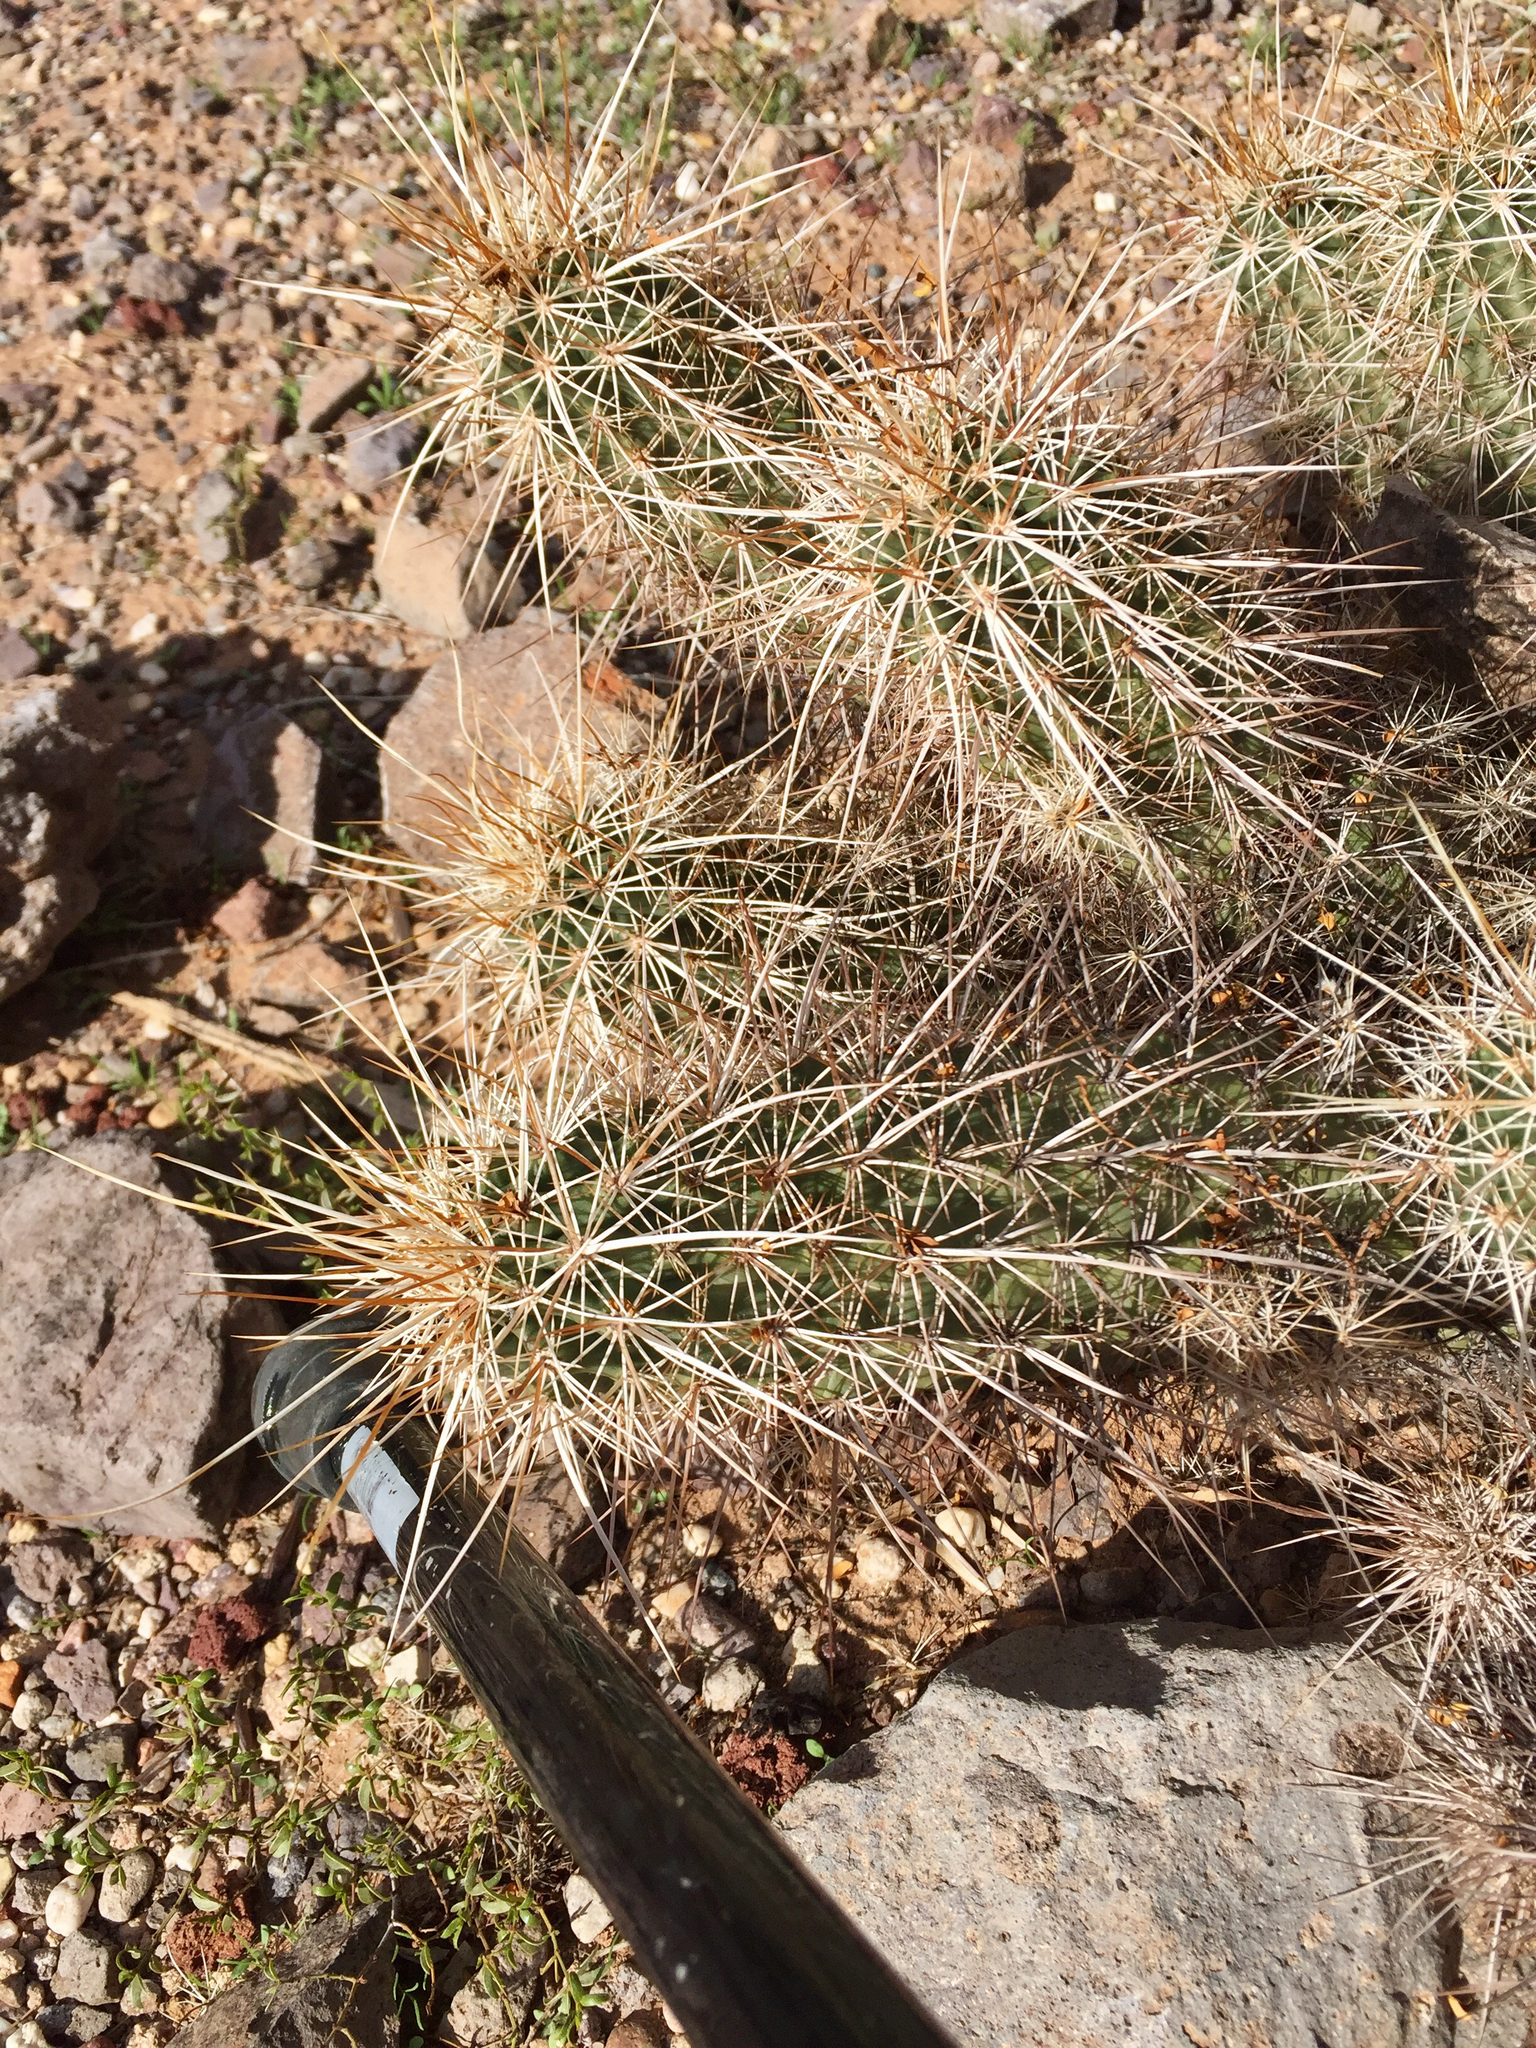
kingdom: Plantae
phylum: Tracheophyta
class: Magnoliopsida
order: Caryophyllales
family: Cactaceae
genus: Echinocereus
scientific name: Echinocereus engelmannii
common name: Engelmann's hedgehog cactus
